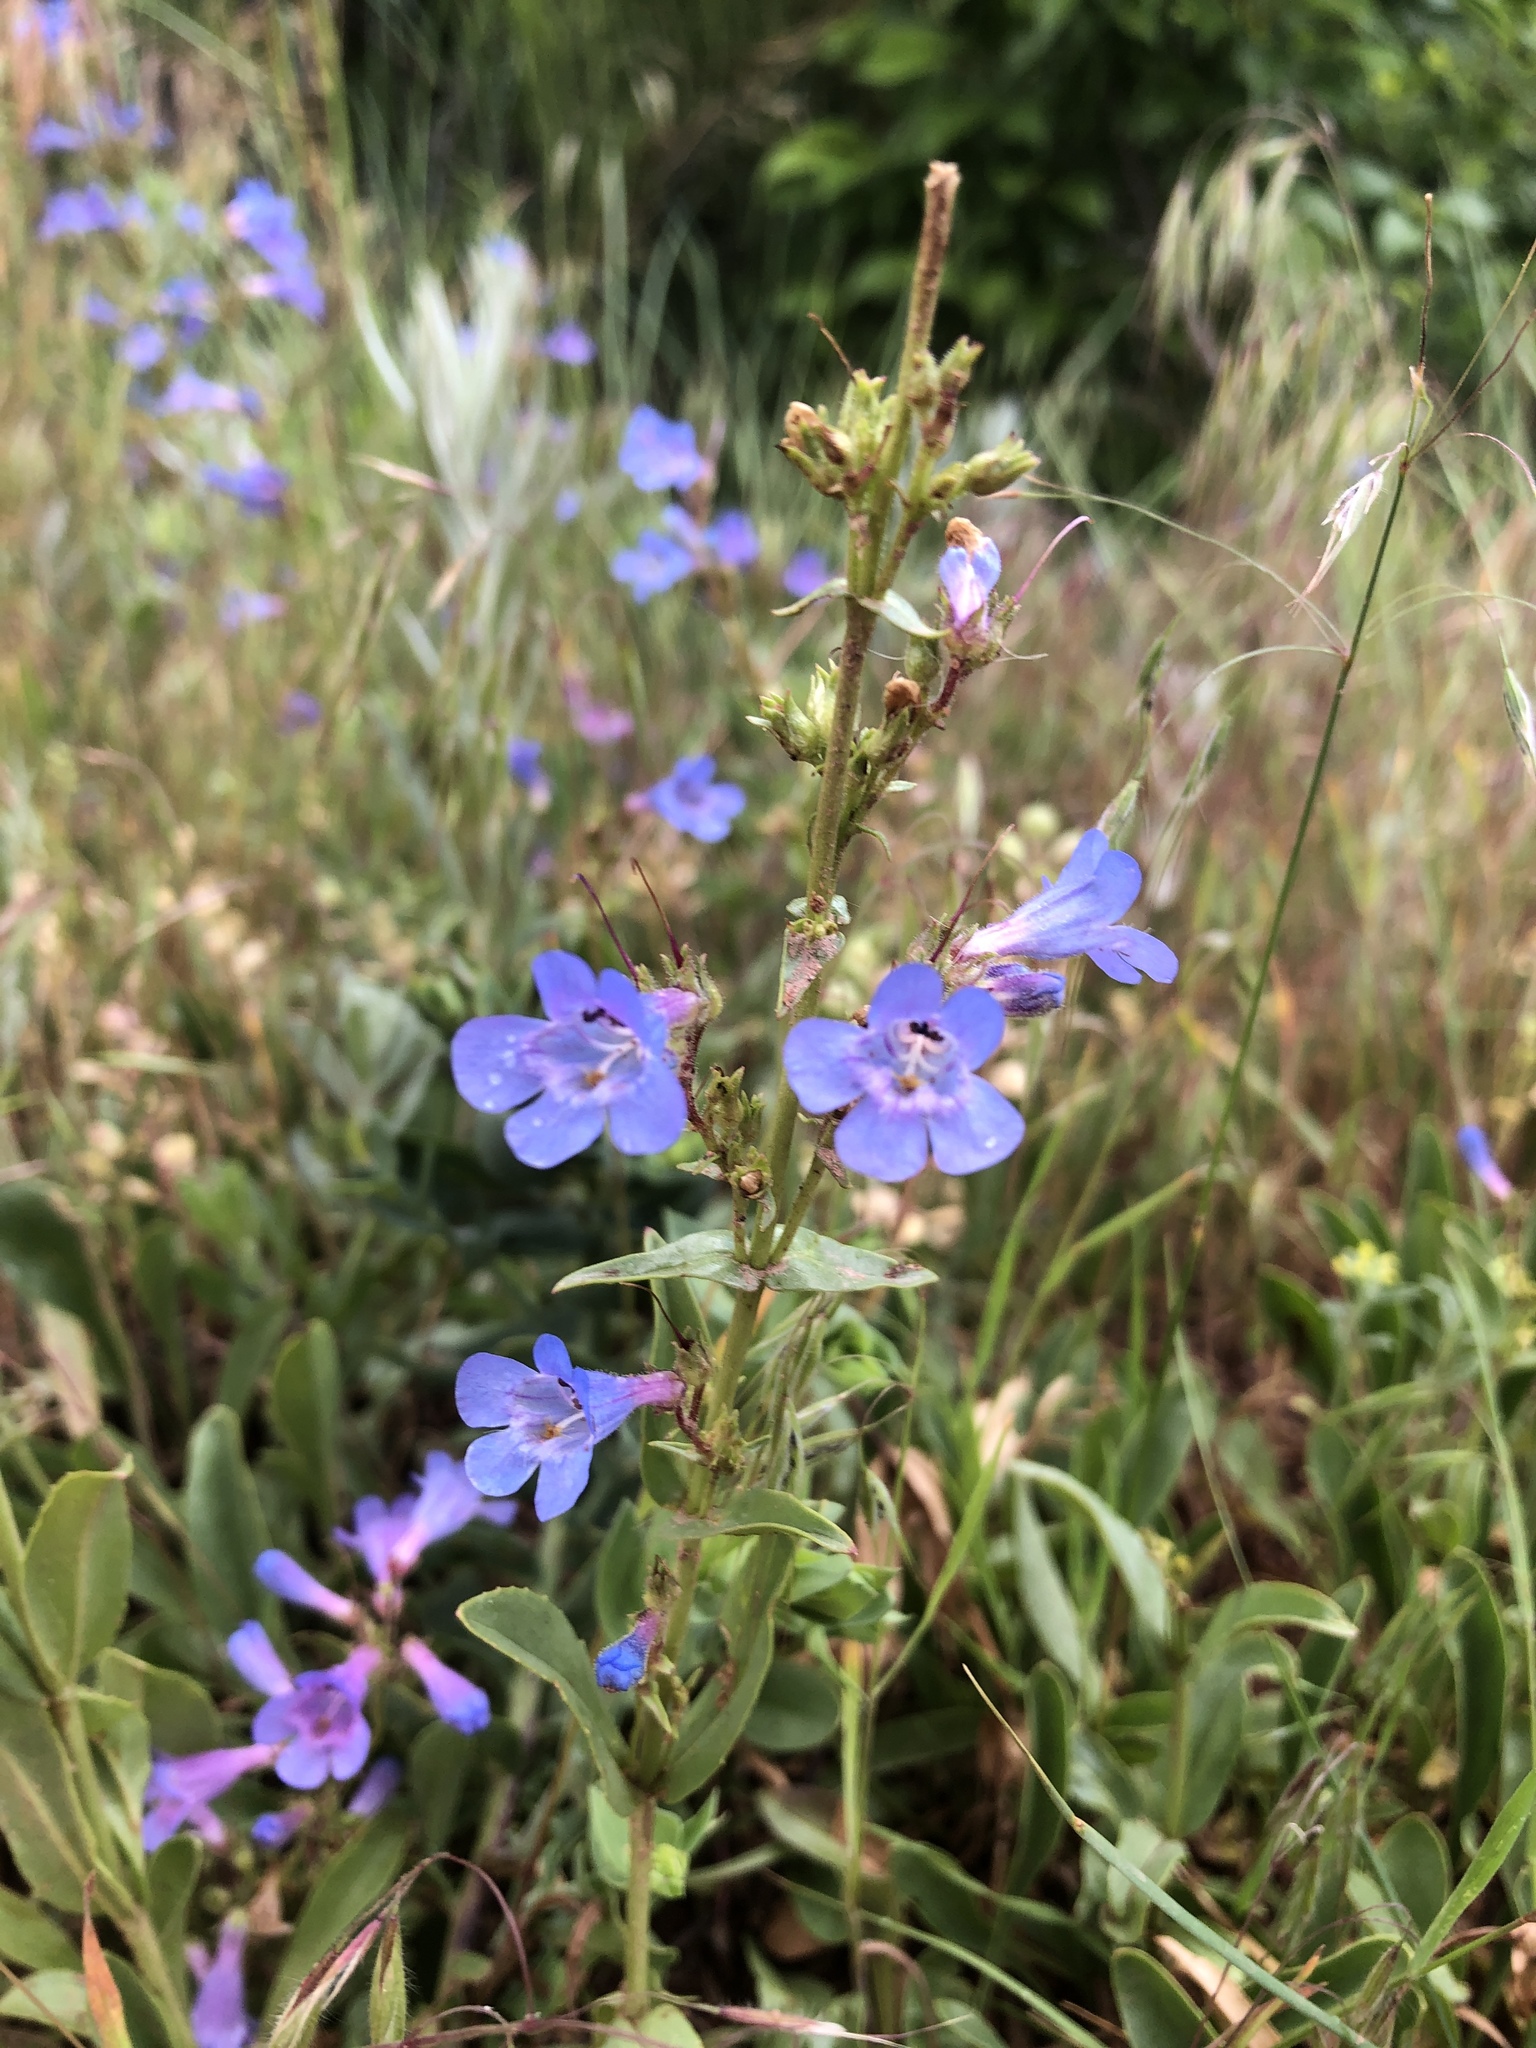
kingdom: Plantae
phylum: Tracheophyta
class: Magnoliopsida
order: Lamiales
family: Plantaginaceae
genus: Penstemon
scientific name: Penstemon virens
